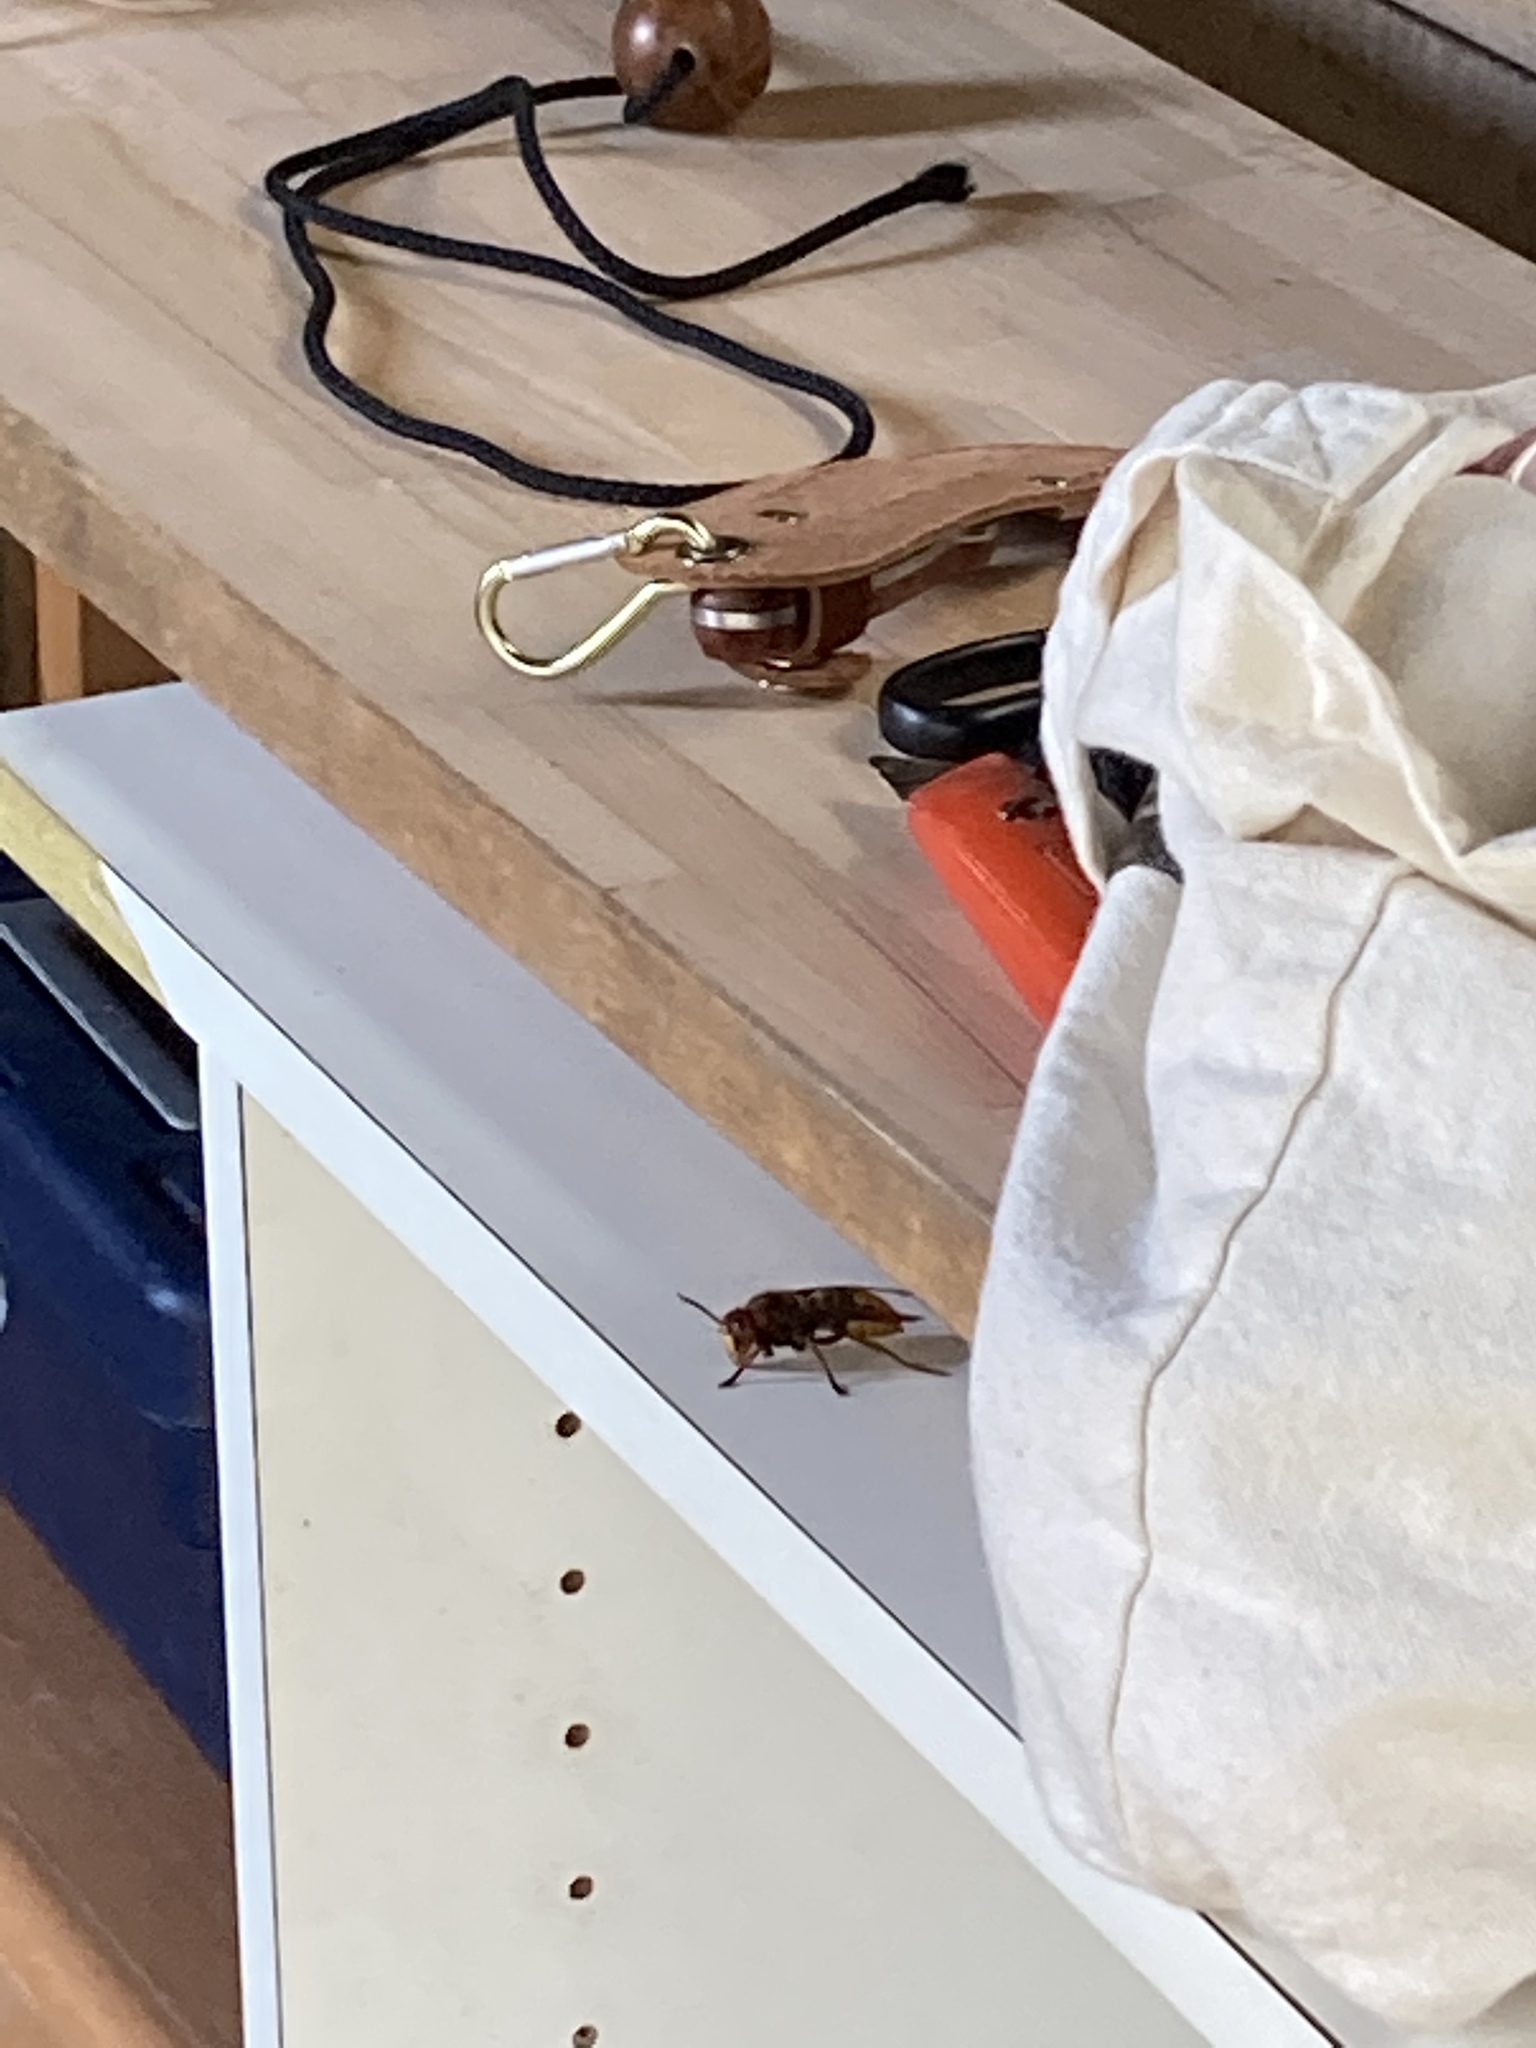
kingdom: Animalia
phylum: Arthropoda
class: Insecta
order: Hymenoptera
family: Vespidae
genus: Vespa
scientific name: Vespa crabro
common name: Hornet
